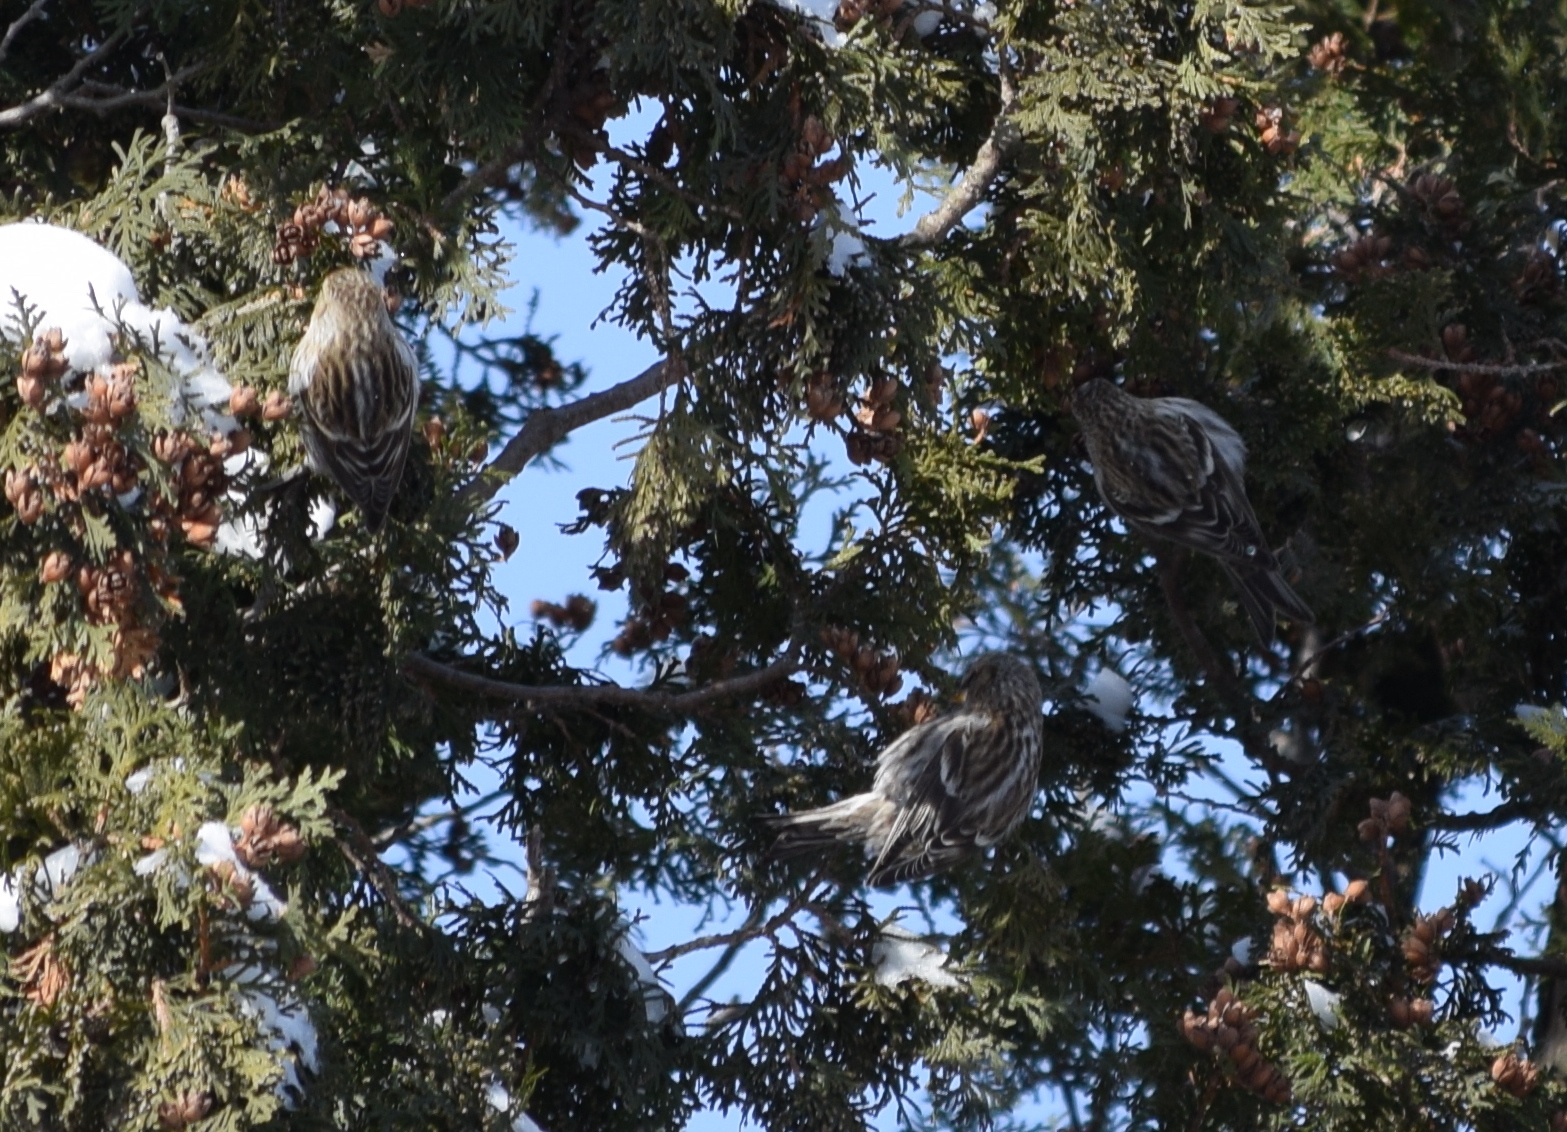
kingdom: Animalia
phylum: Chordata
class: Aves
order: Passeriformes
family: Fringillidae
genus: Acanthis
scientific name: Acanthis flammea
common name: Common redpoll
